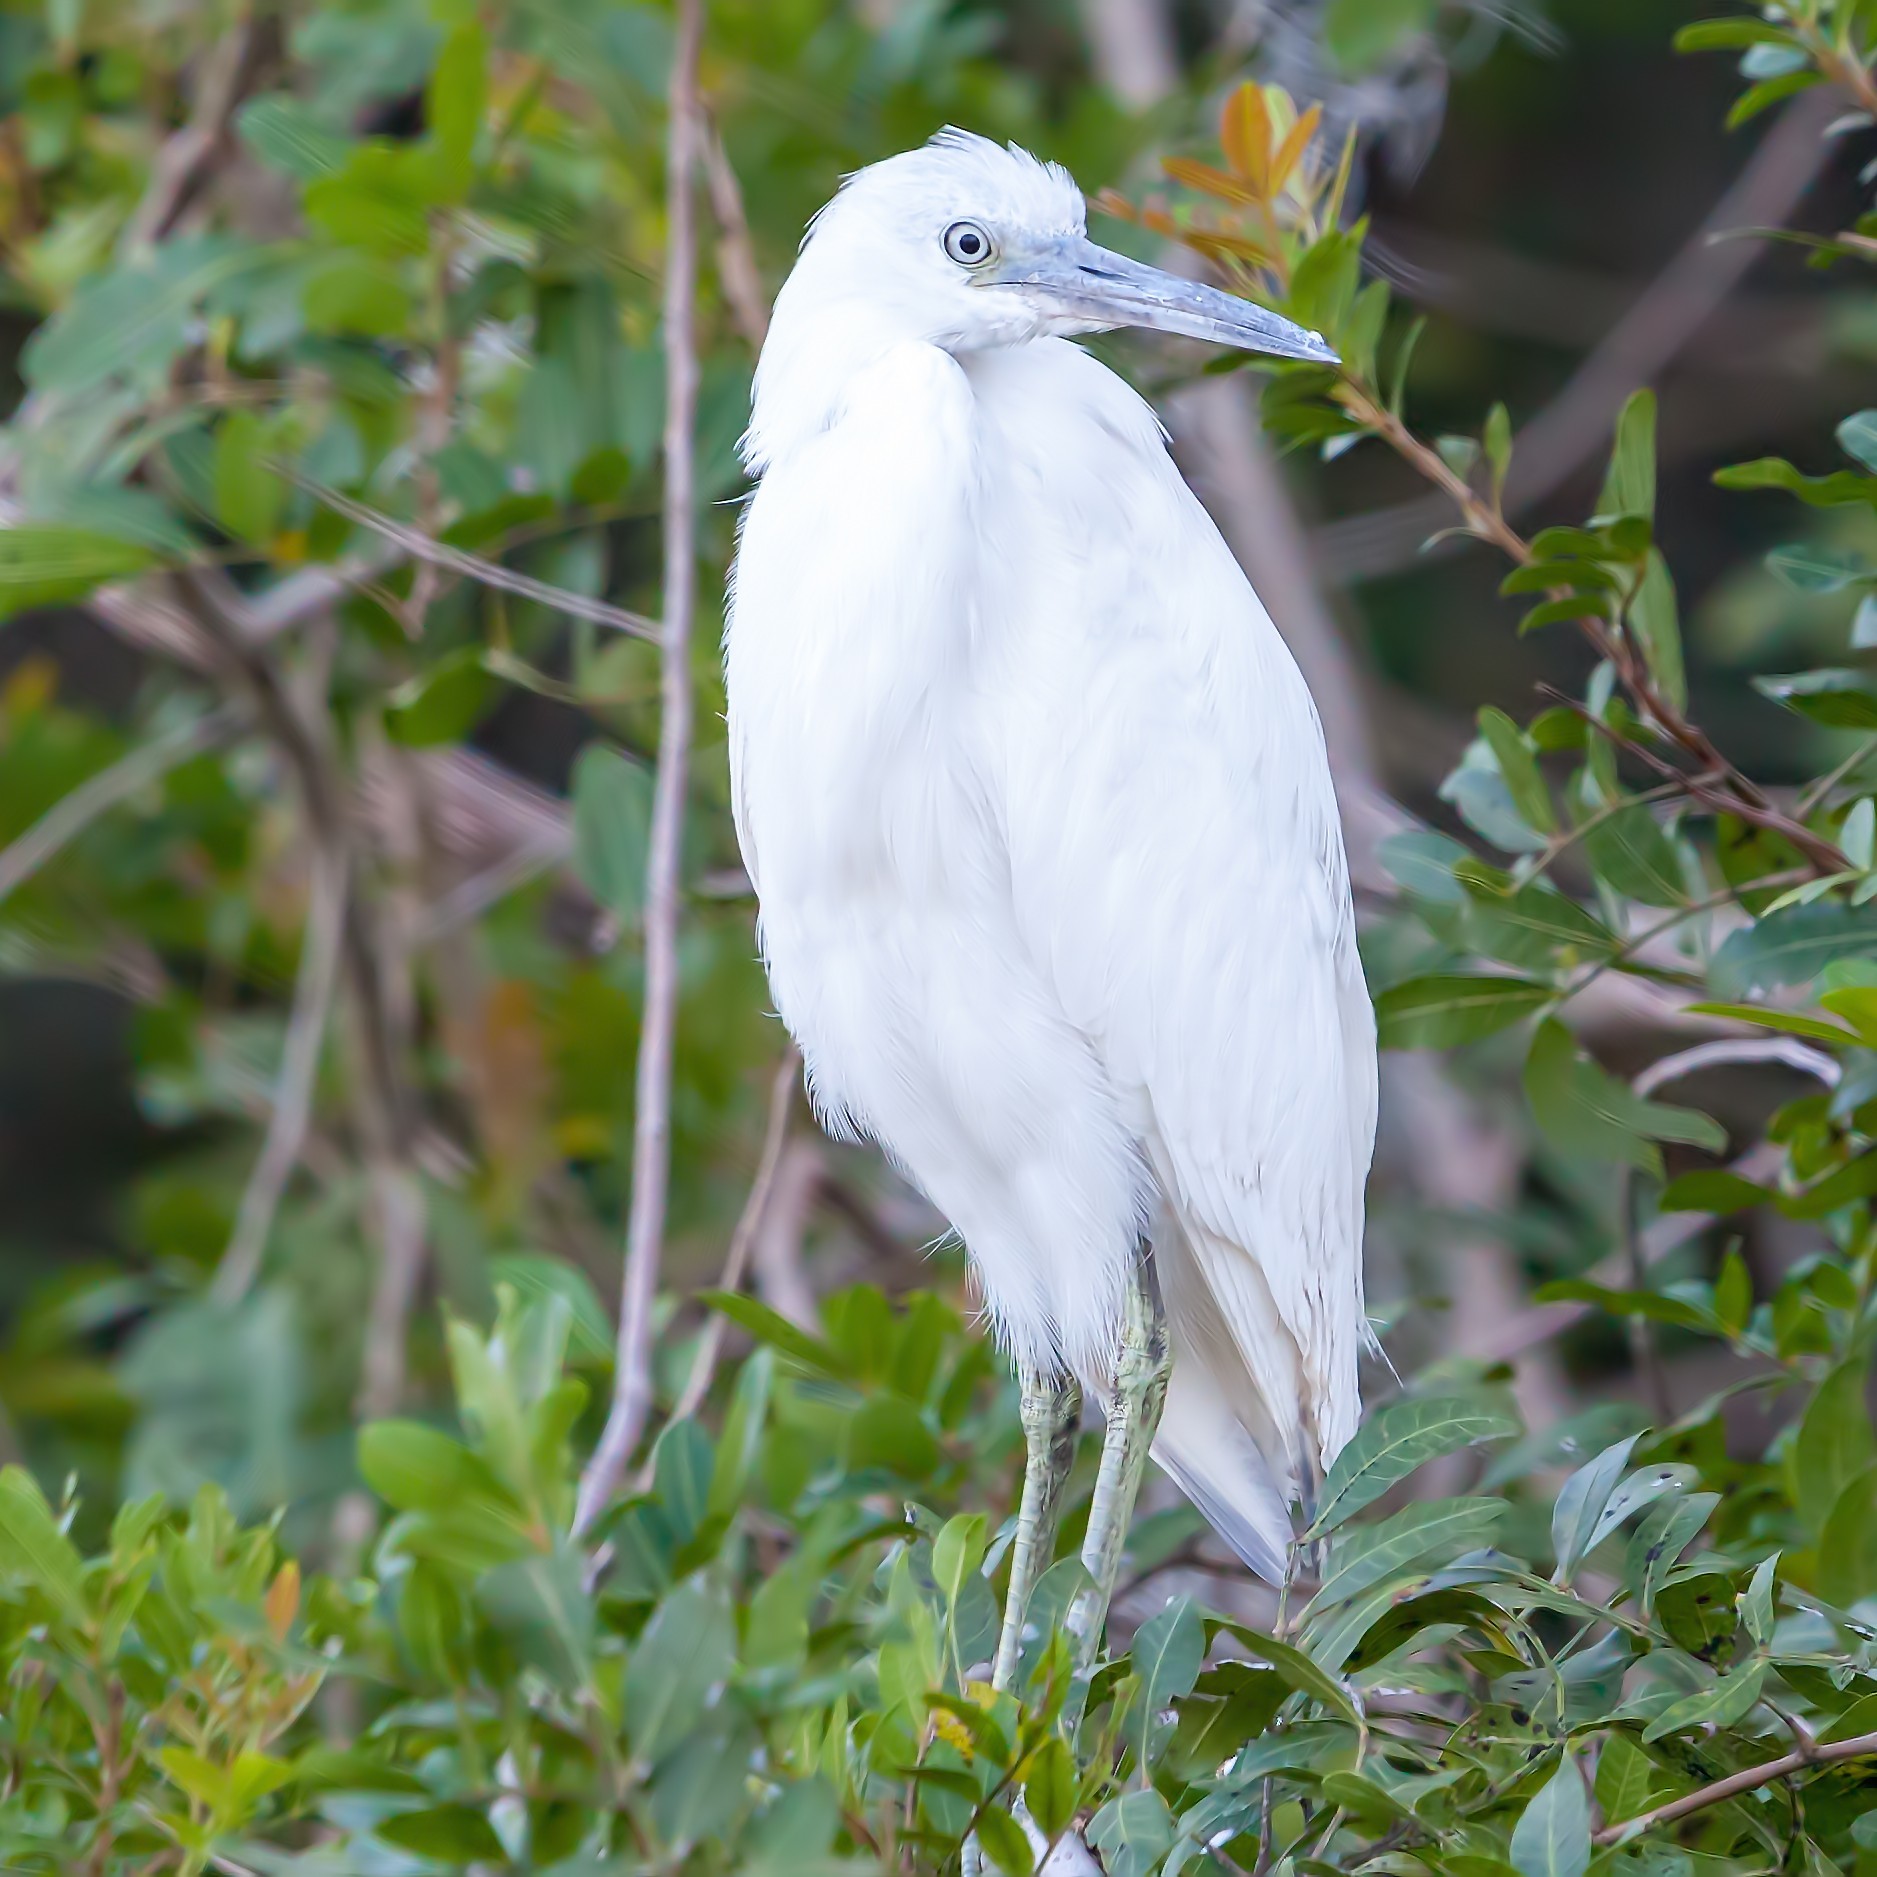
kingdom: Animalia
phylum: Chordata
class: Aves
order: Pelecaniformes
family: Ardeidae
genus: Egretta
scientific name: Egretta caerulea
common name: Little blue heron
